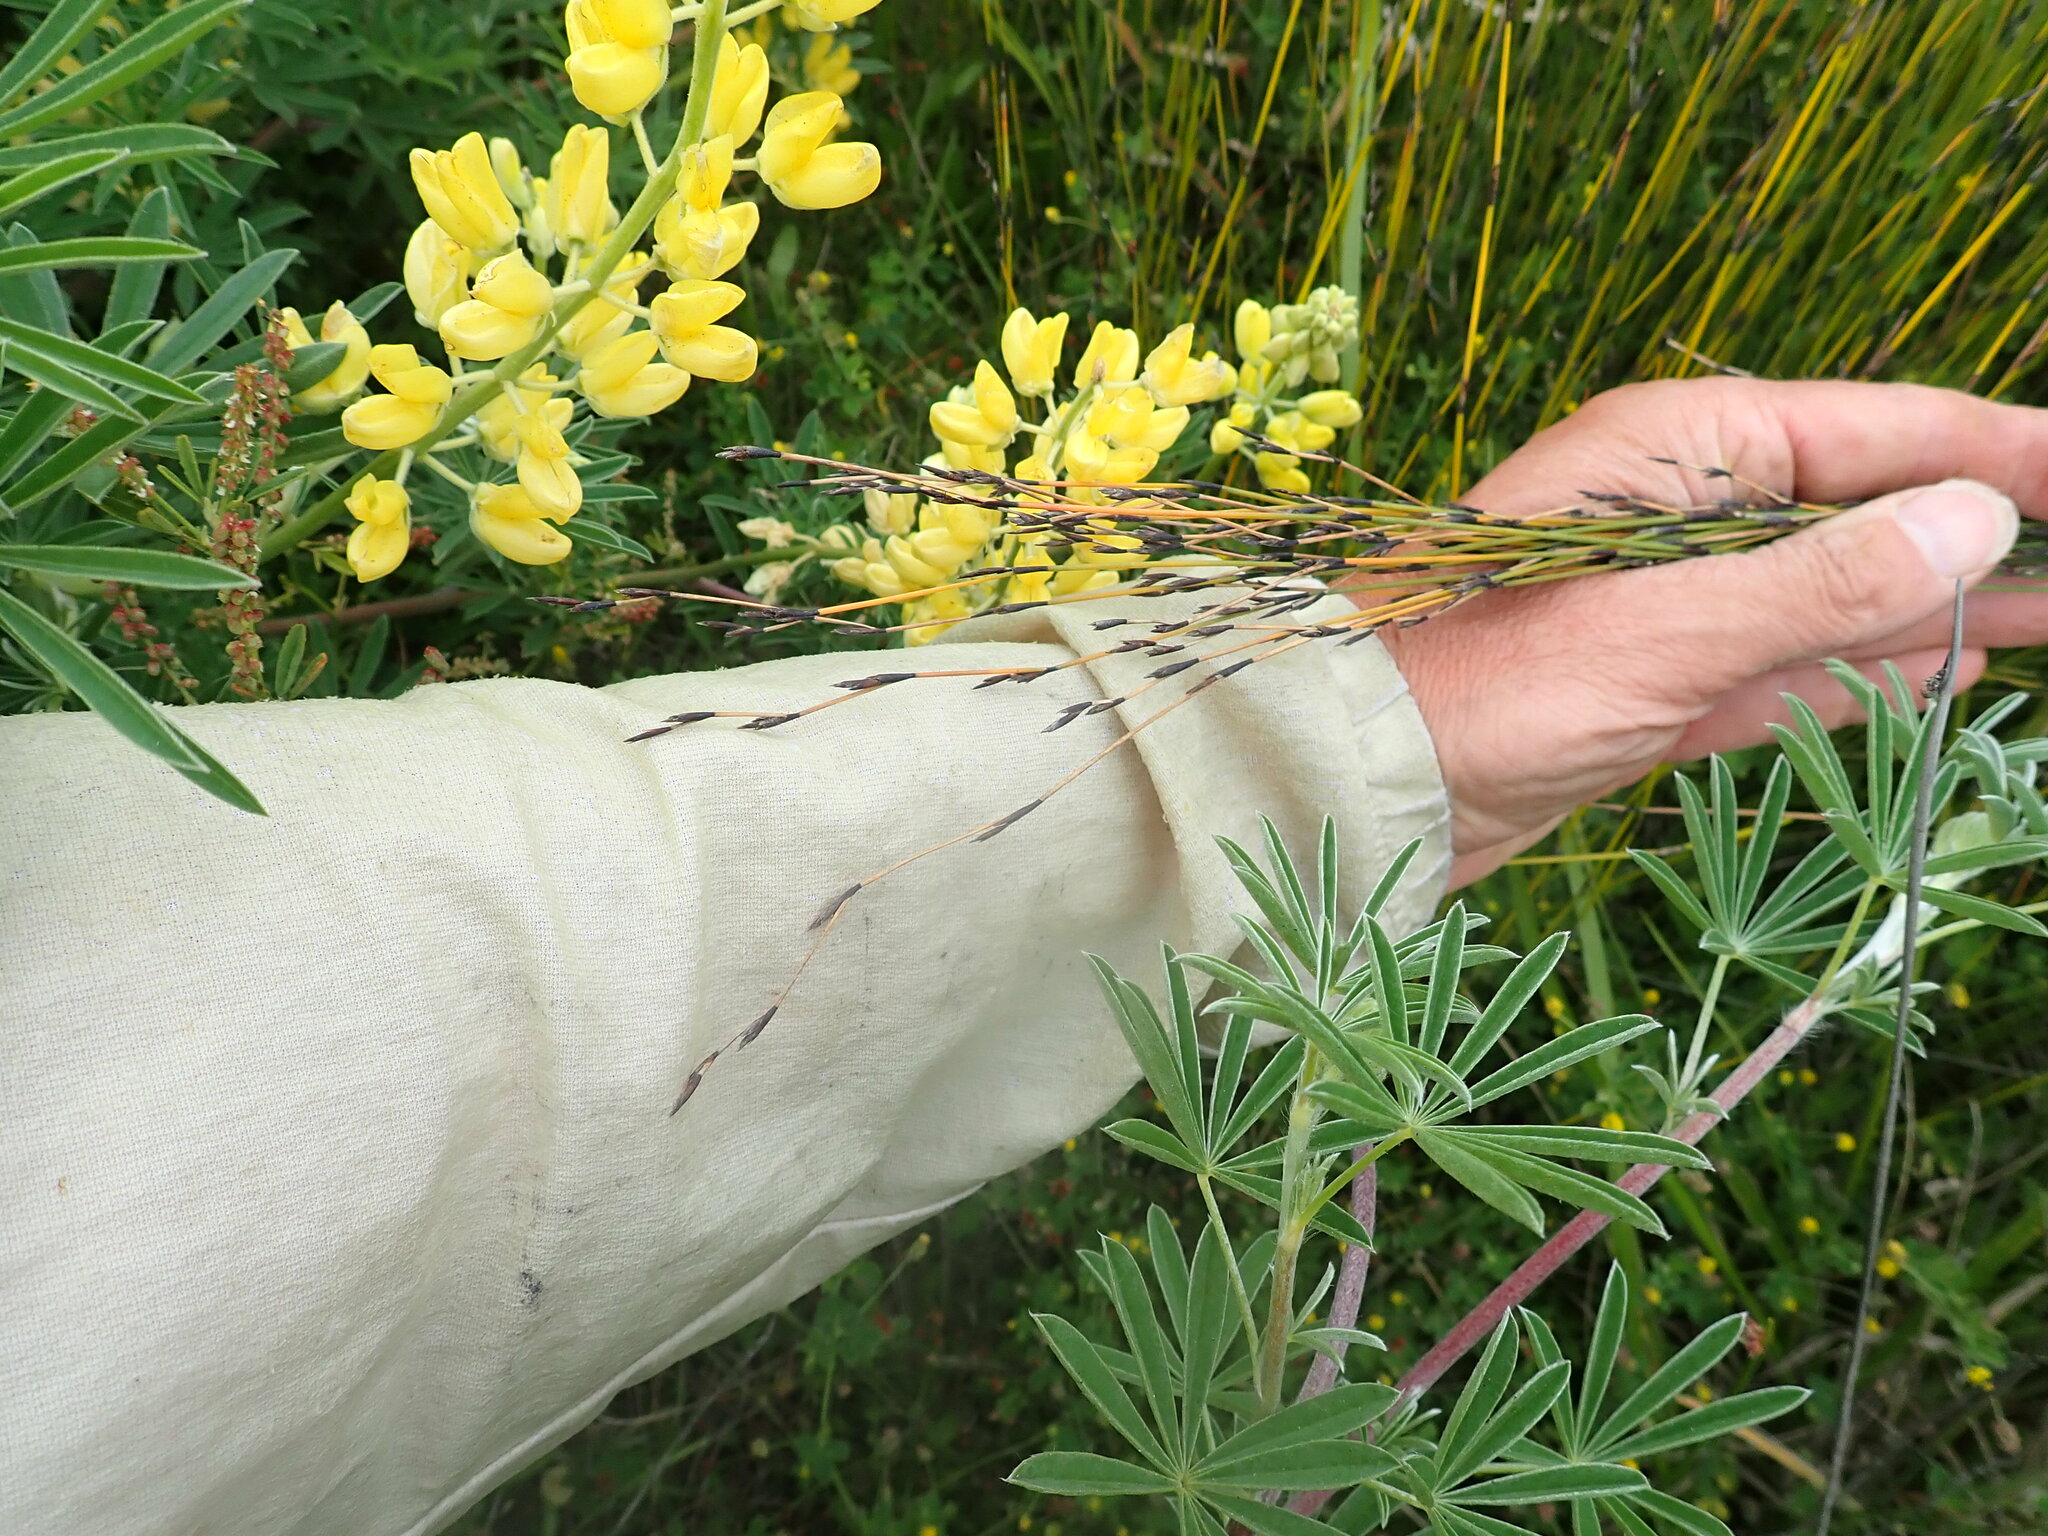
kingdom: Plantae
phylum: Tracheophyta
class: Liliopsida
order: Poales
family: Restionaceae
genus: Apodasmia
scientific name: Apodasmia similis
